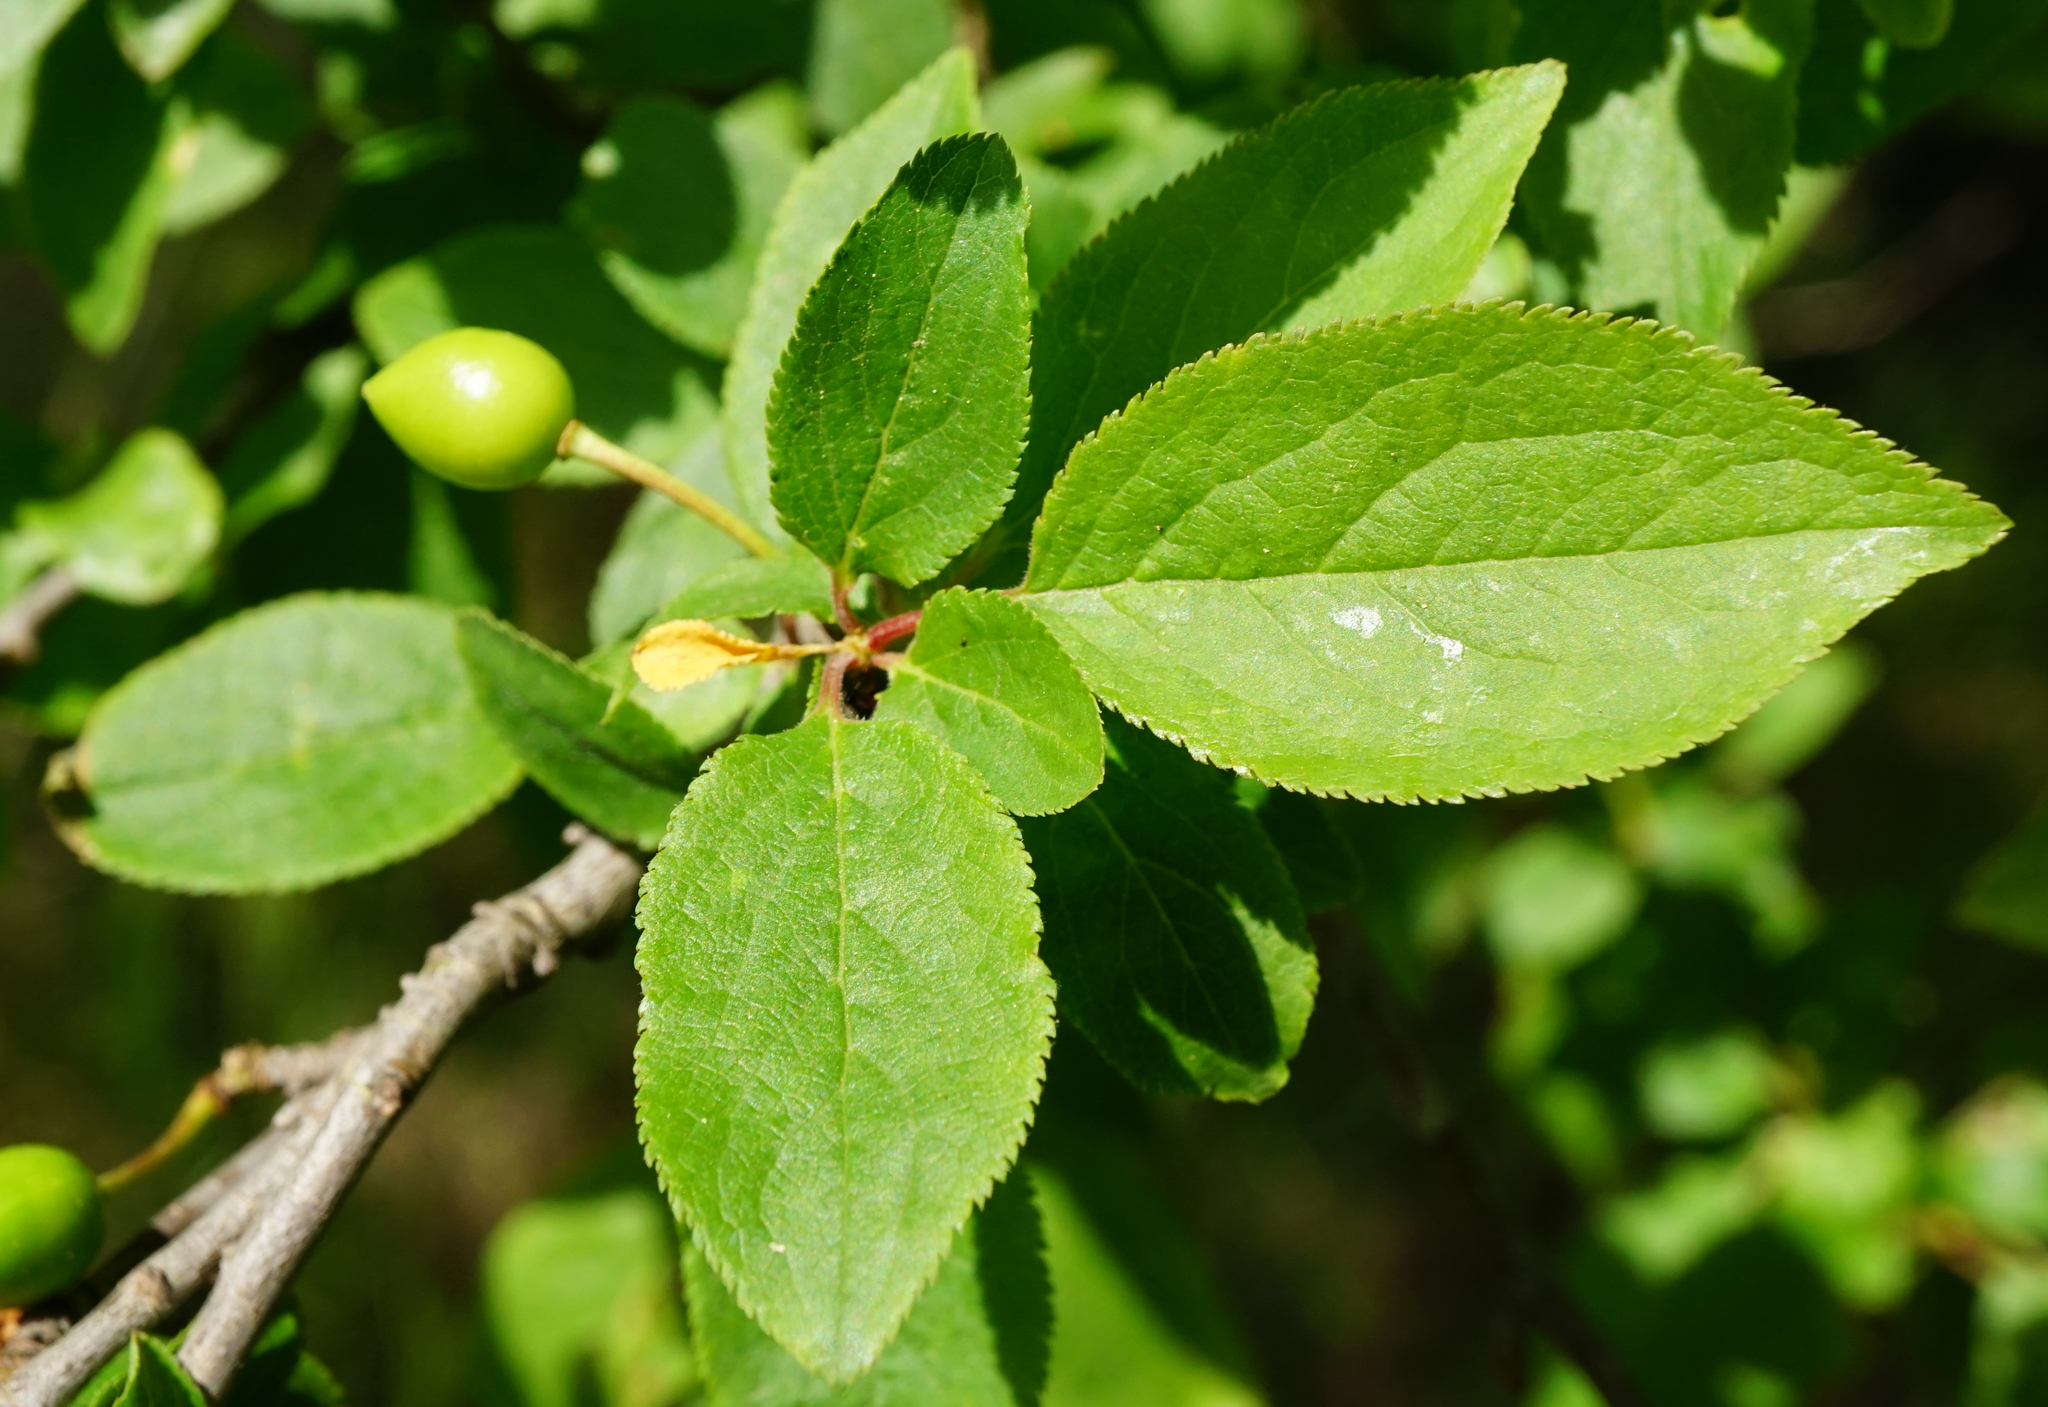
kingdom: Plantae
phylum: Tracheophyta
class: Magnoliopsida
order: Rosales
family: Rosaceae
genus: Prunus
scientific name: Prunus cerasifera
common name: Cherry plum
